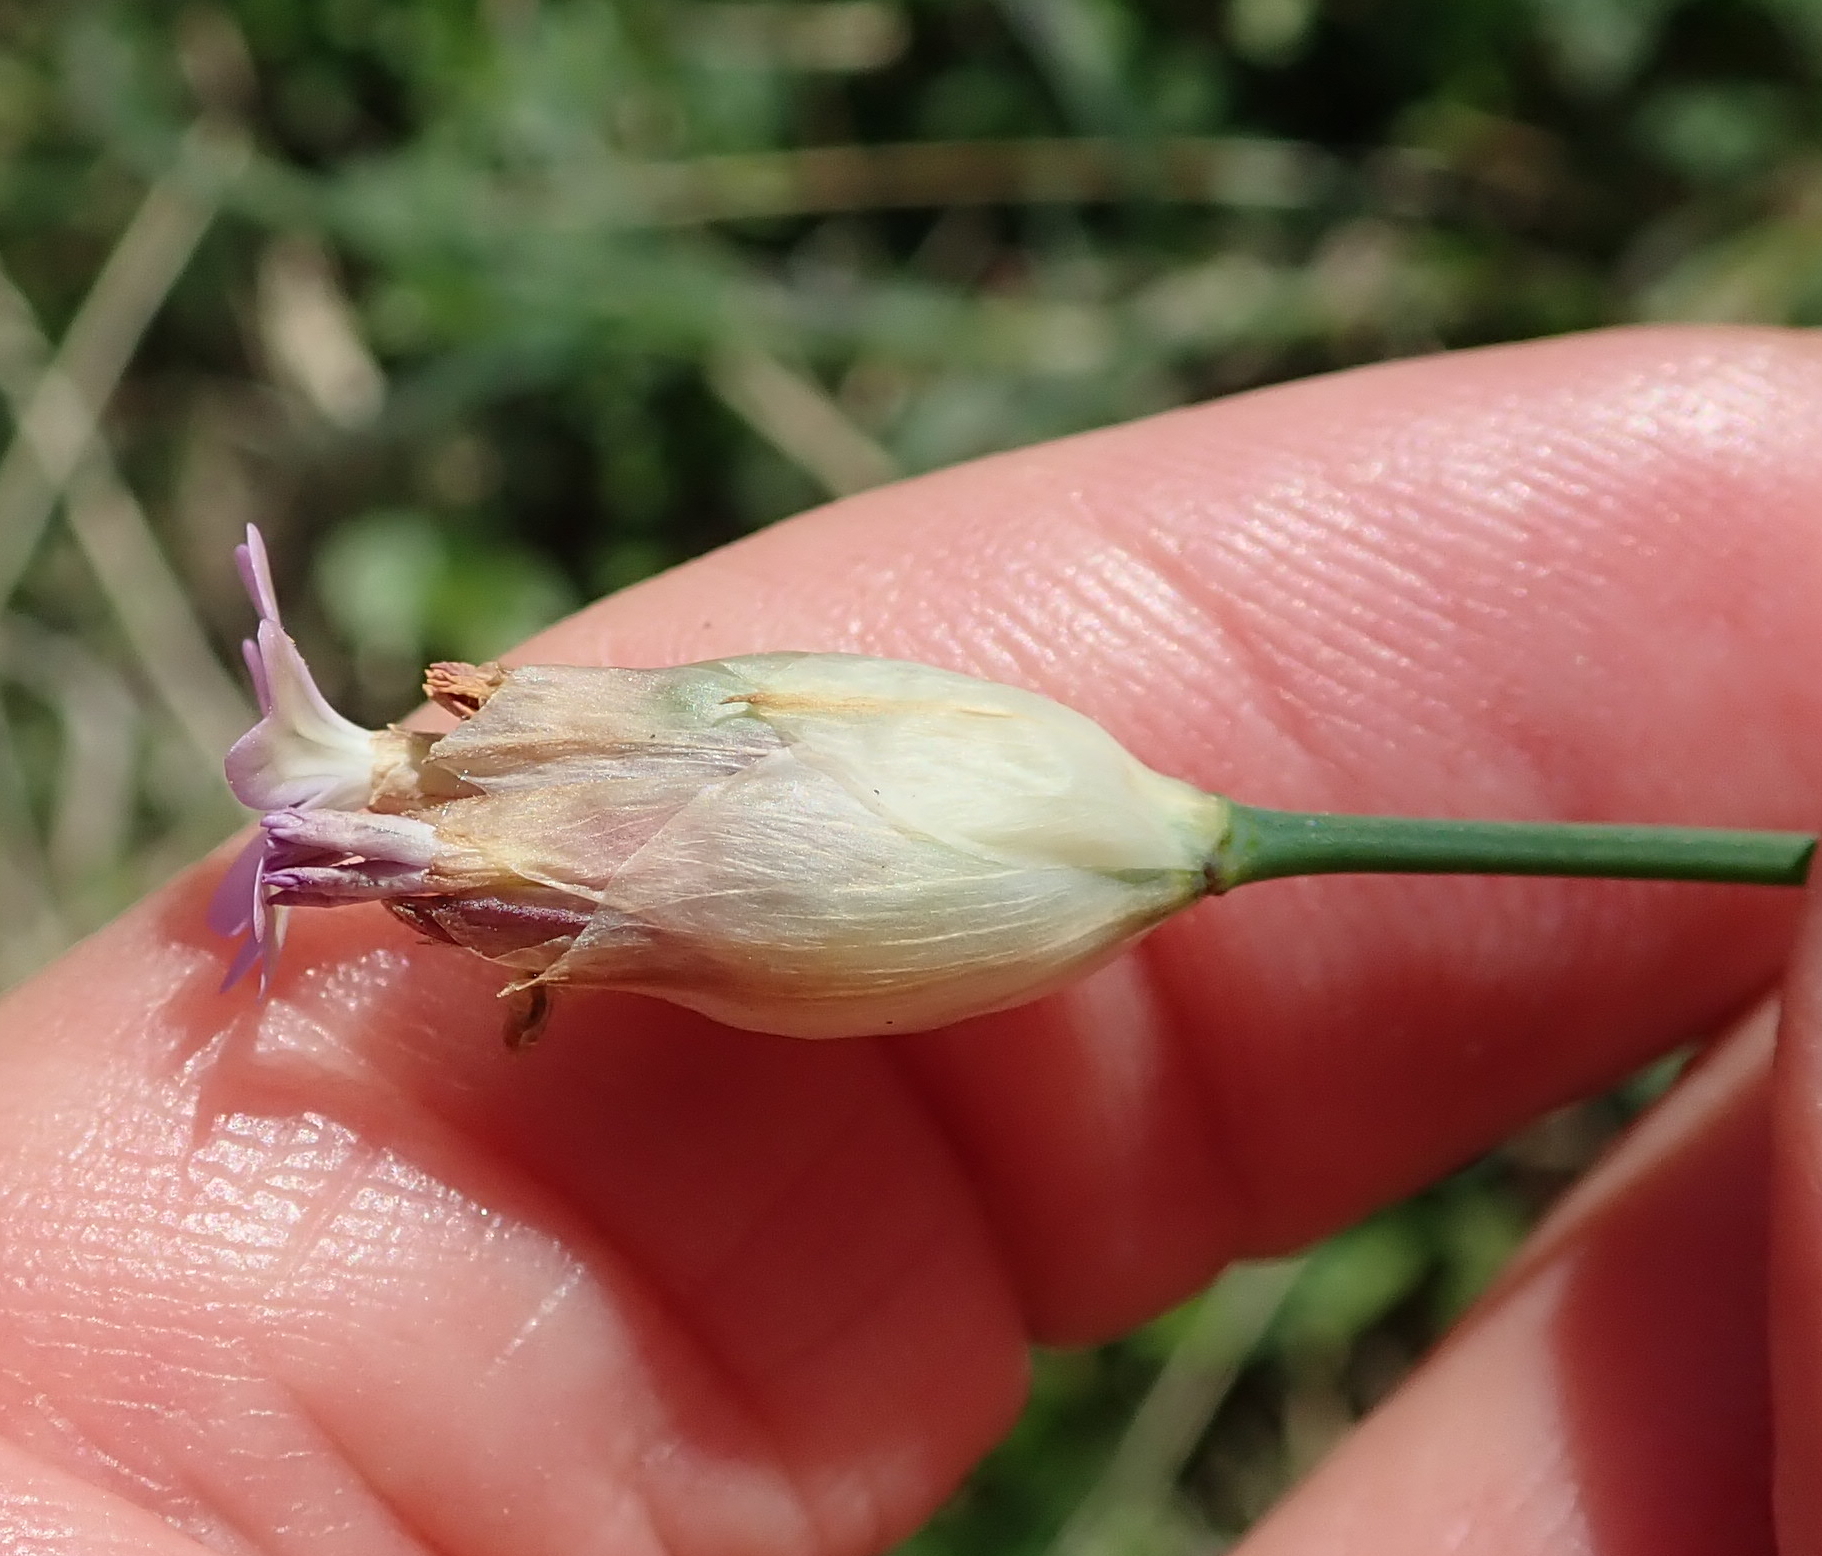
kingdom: Plantae
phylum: Tracheophyta
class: Magnoliopsida
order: Caryophyllales
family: Caryophyllaceae
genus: Petrorhagia
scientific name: Petrorhagia prolifera
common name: Proliferous pink
